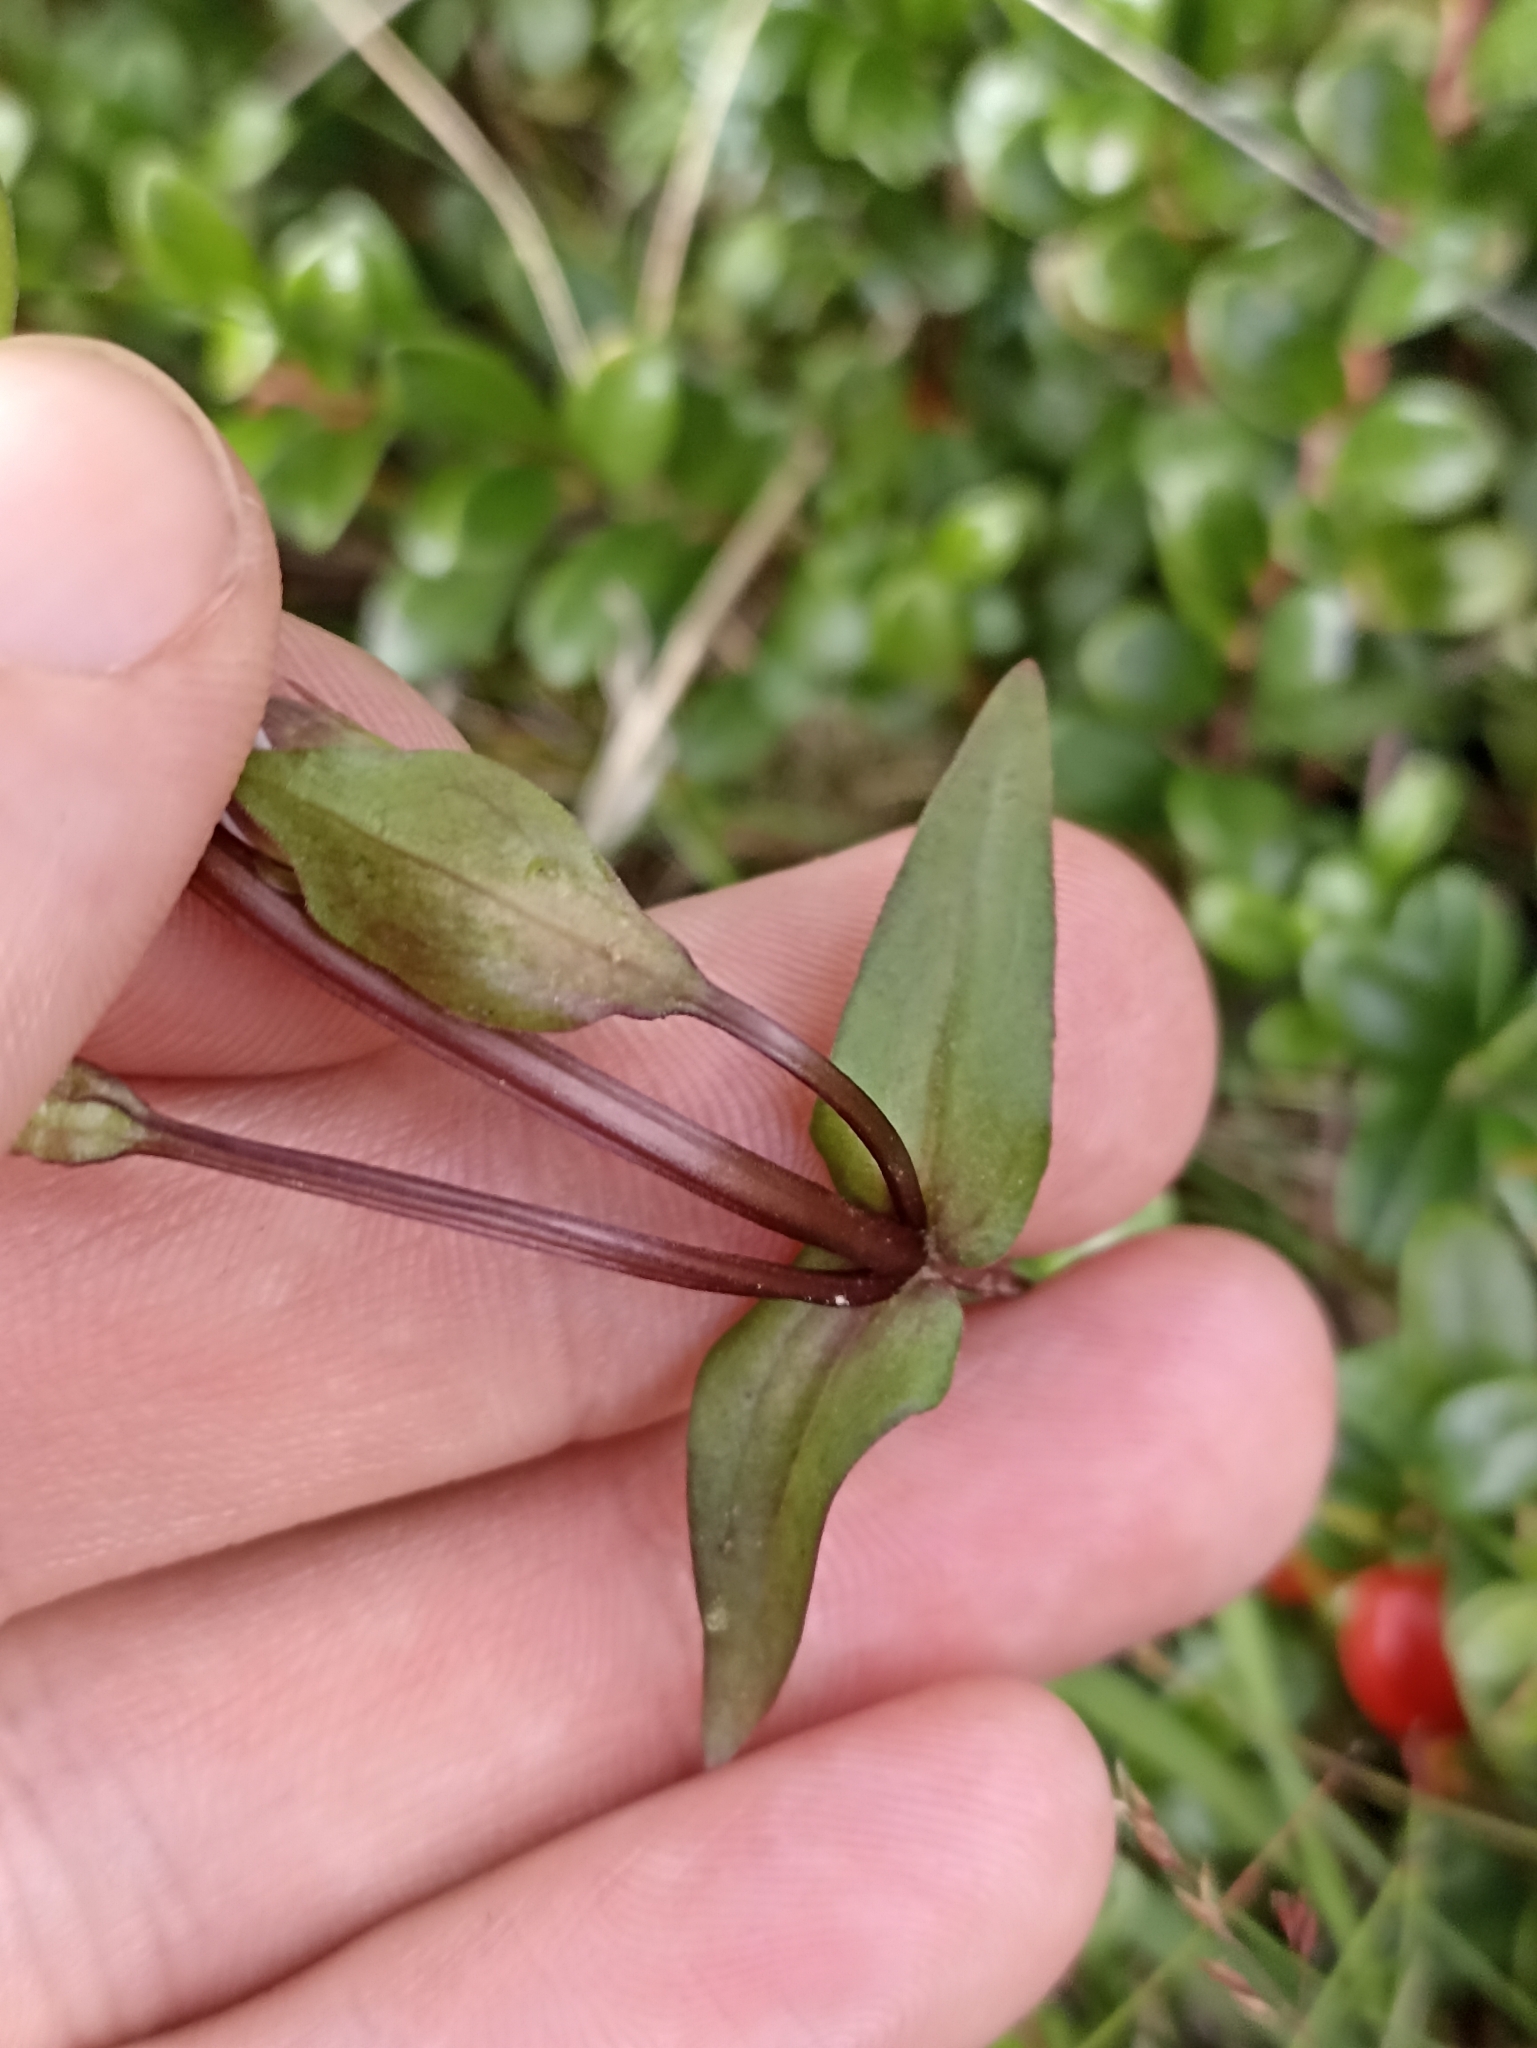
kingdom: Plantae
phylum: Tracheophyta
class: Magnoliopsida
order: Gentianales
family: Gentianaceae
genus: Gentianella
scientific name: Gentianella campestris
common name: Field gentian
